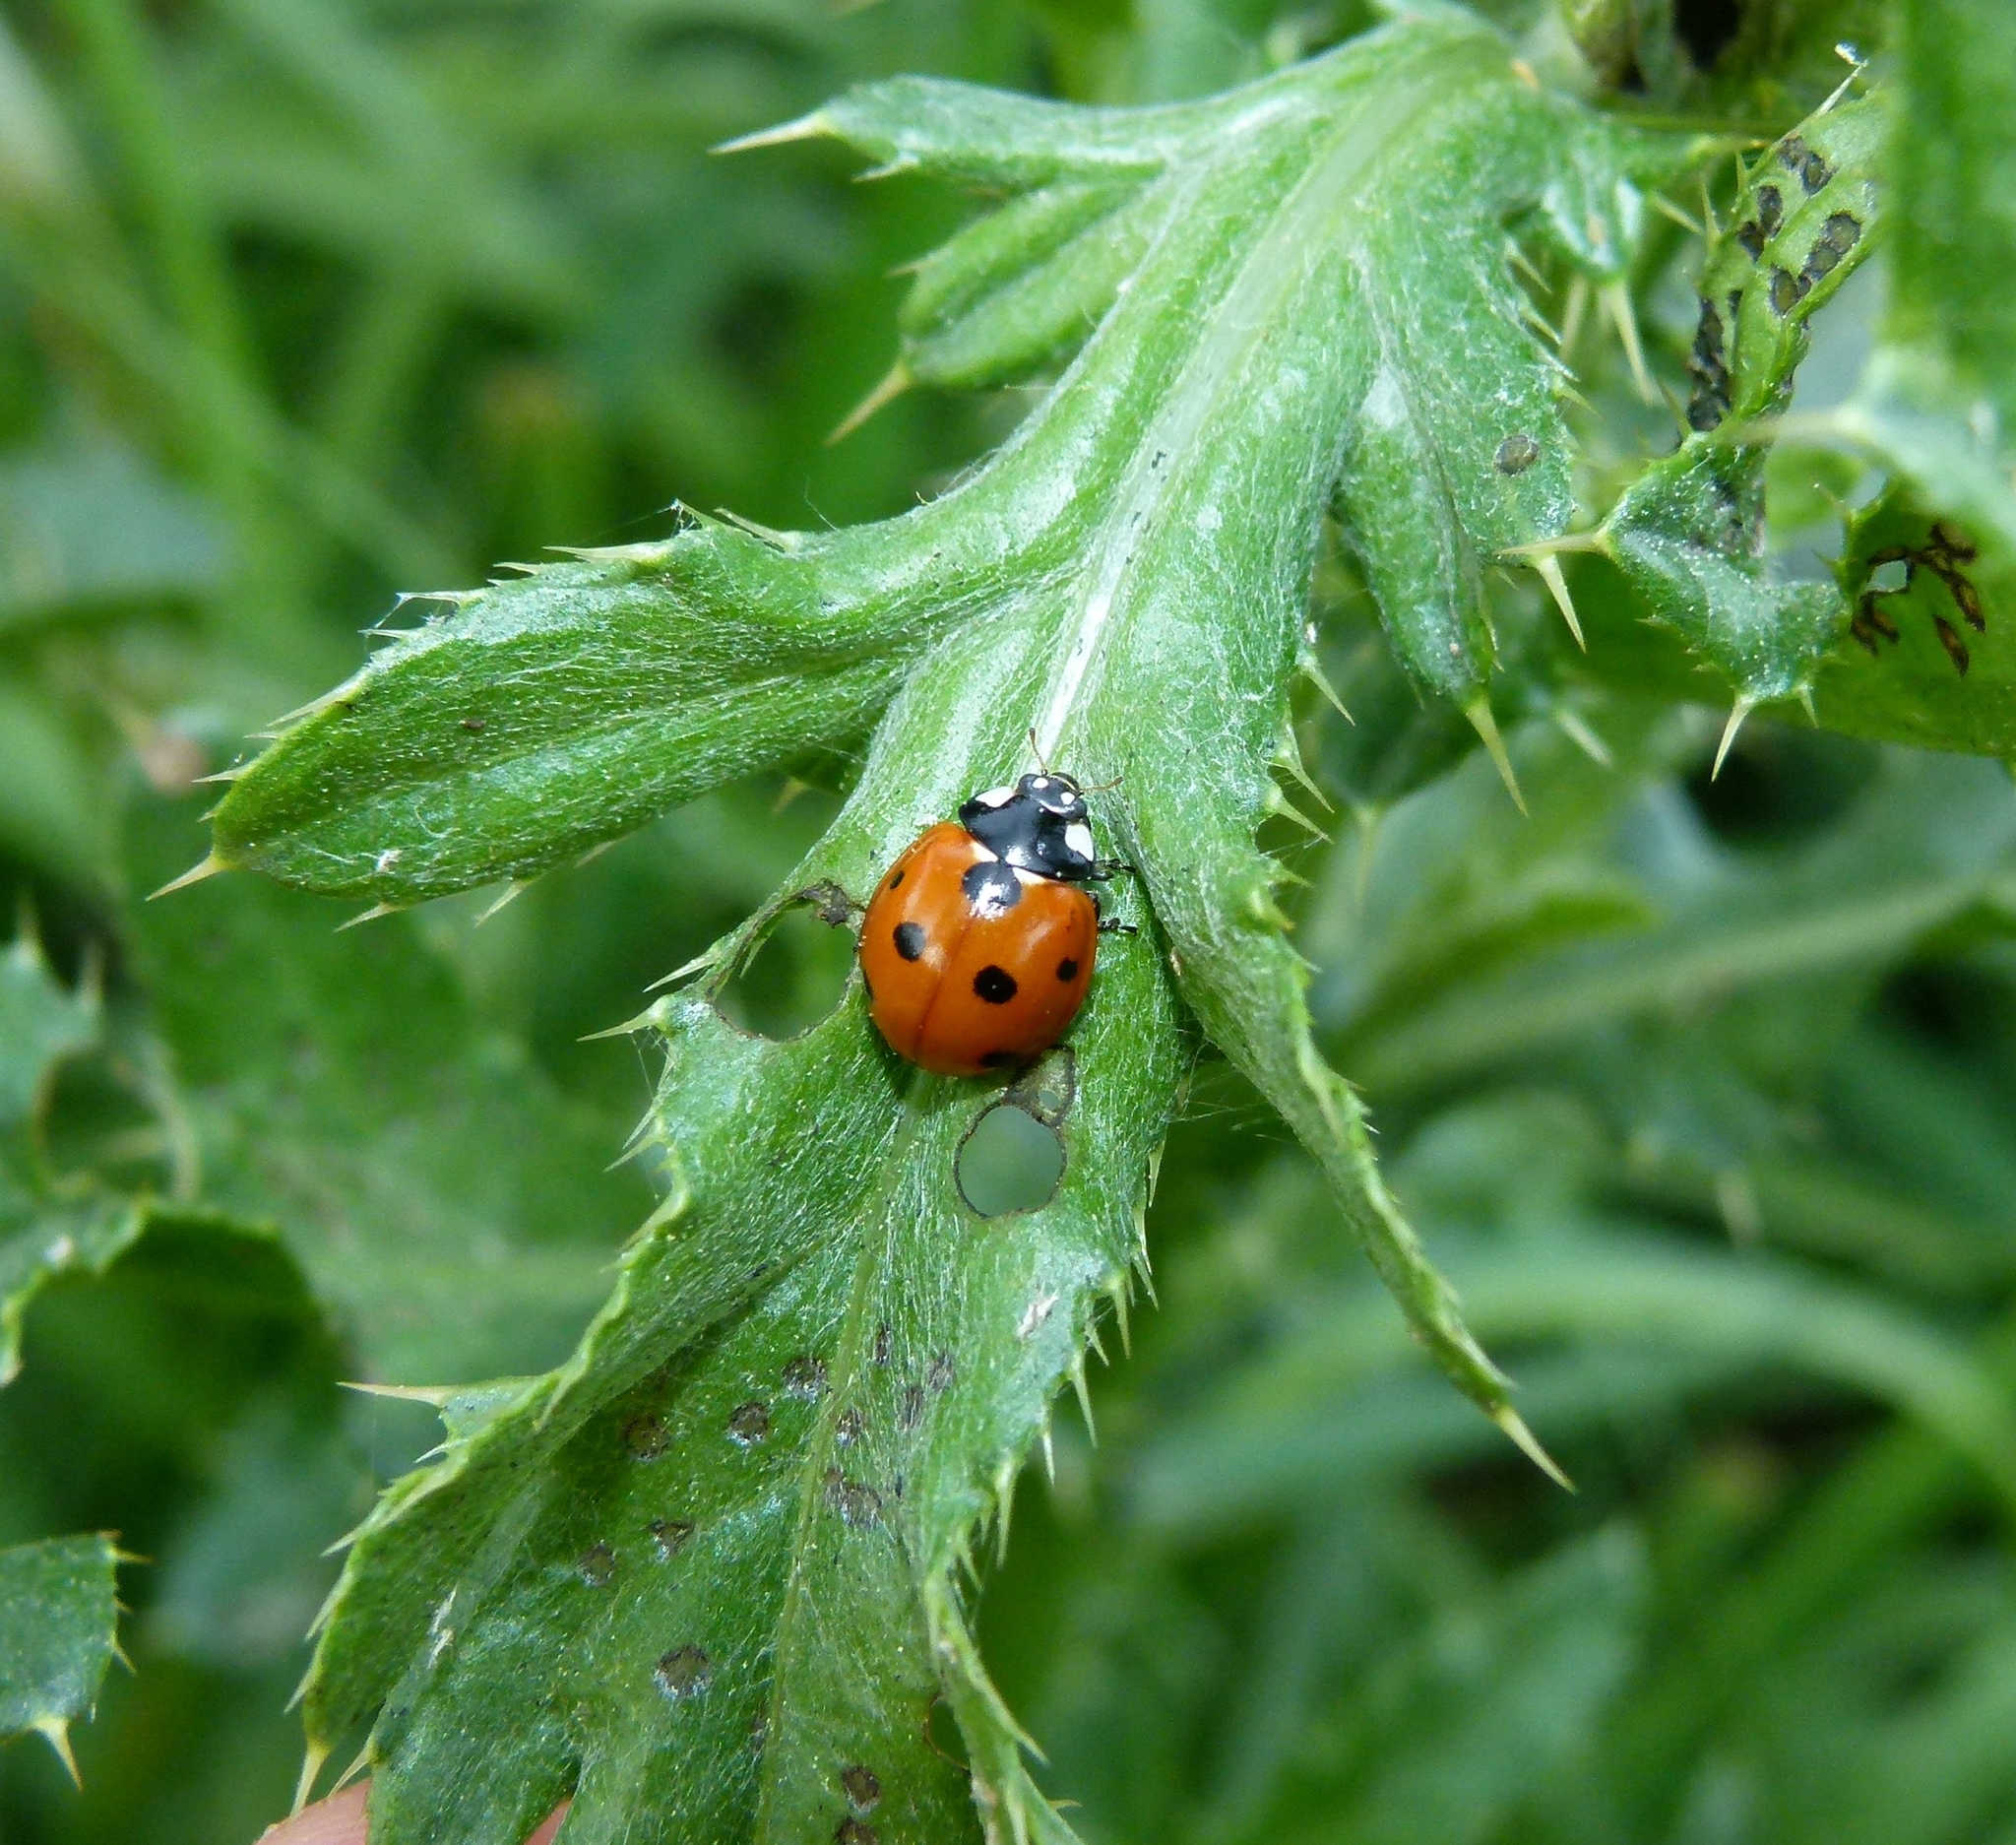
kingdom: Animalia
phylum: Arthropoda
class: Insecta
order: Coleoptera
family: Coccinellidae
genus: Coccinella
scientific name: Coccinella septempunctata
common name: Sevenspotted lady beetle
